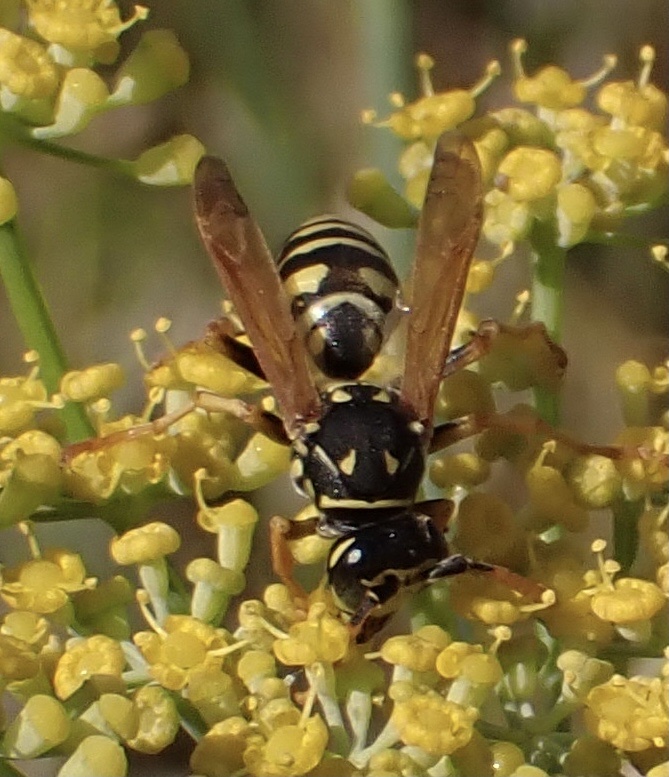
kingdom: Animalia
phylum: Arthropoda
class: Insecta
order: Hymenoptera
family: Eumenidae
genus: Polistes
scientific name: Polistes dominula
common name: Paper wasp
